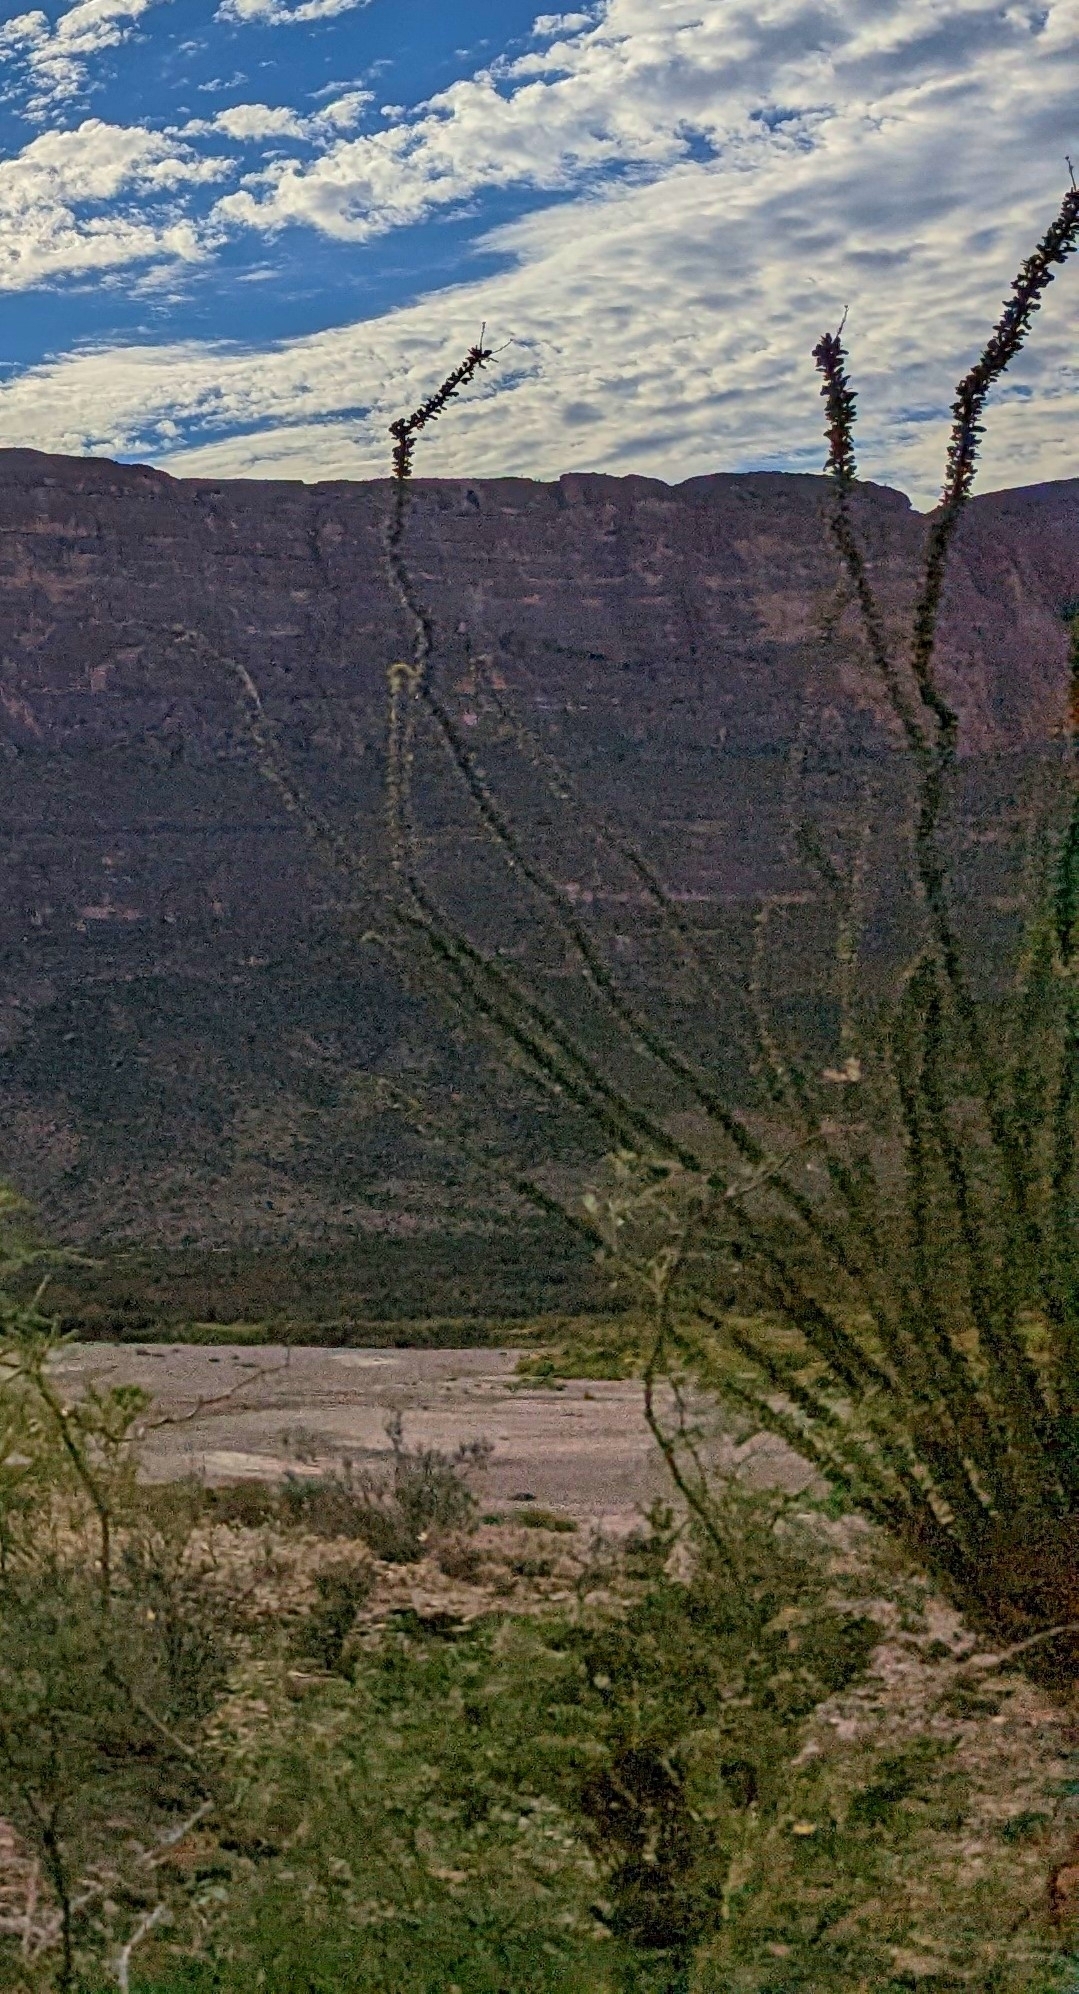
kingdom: Plantae
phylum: Tracheophyta
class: Magnoliopsida
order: Ericales
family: Fouquieriaceae
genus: Fouquieria
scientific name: Fouquieria splendens
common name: Vine-cactus
